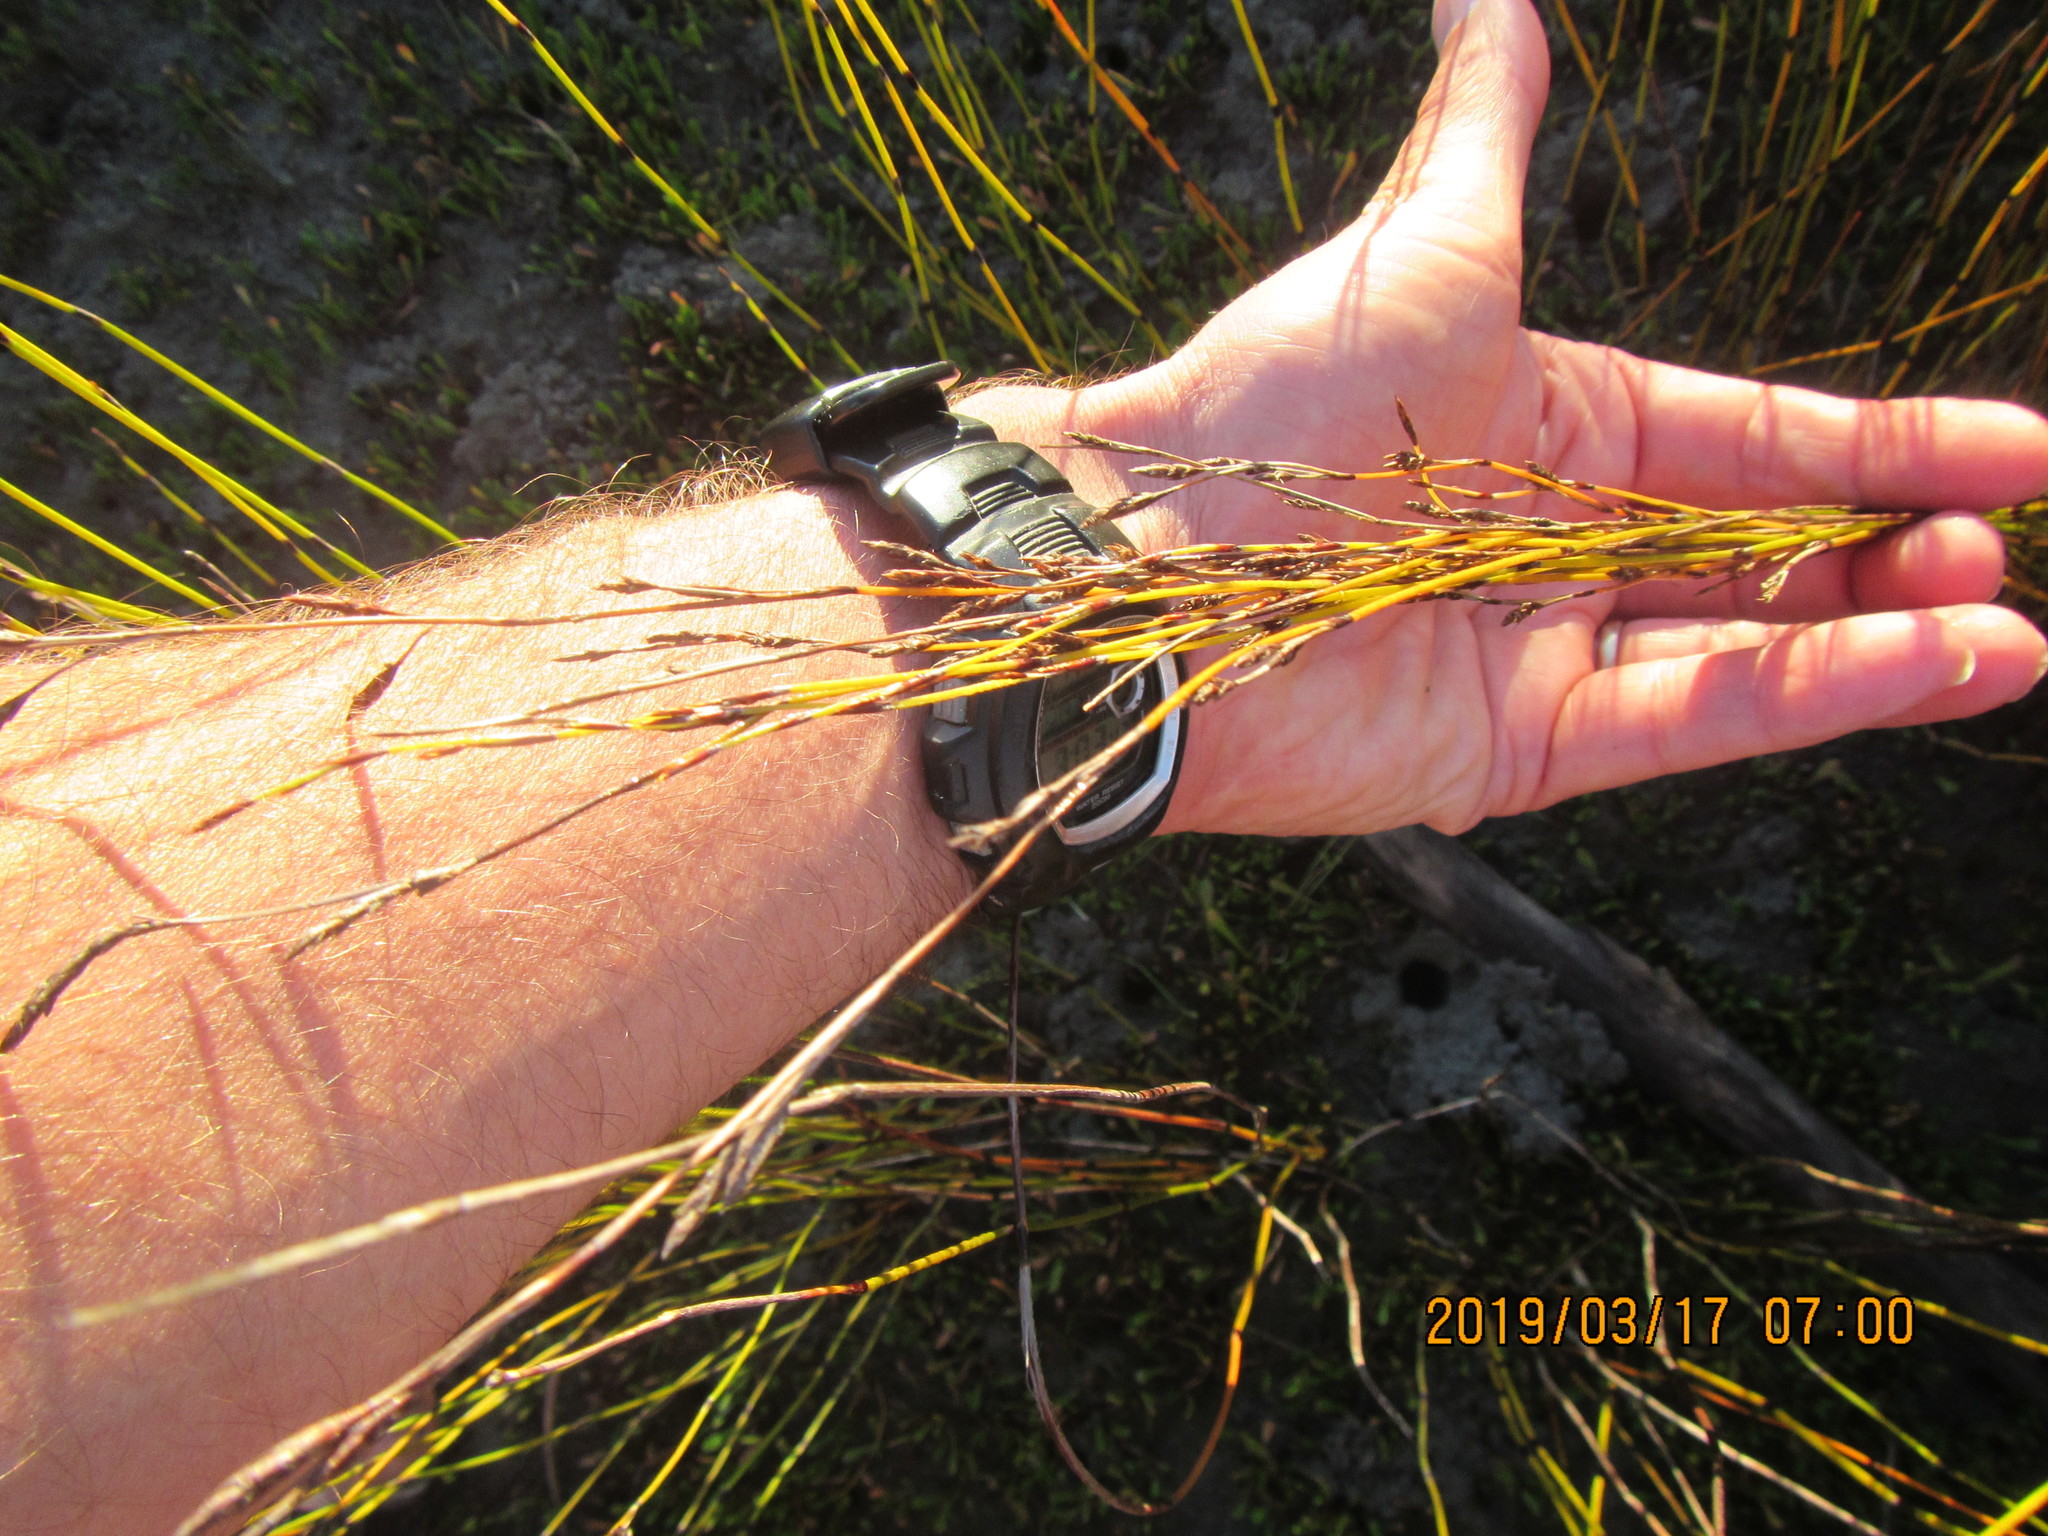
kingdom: Plantae
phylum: Tracheophyta
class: Liliopsida
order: Poales
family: Restionaceae
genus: Apodasmia
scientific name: Apodasmia similis
